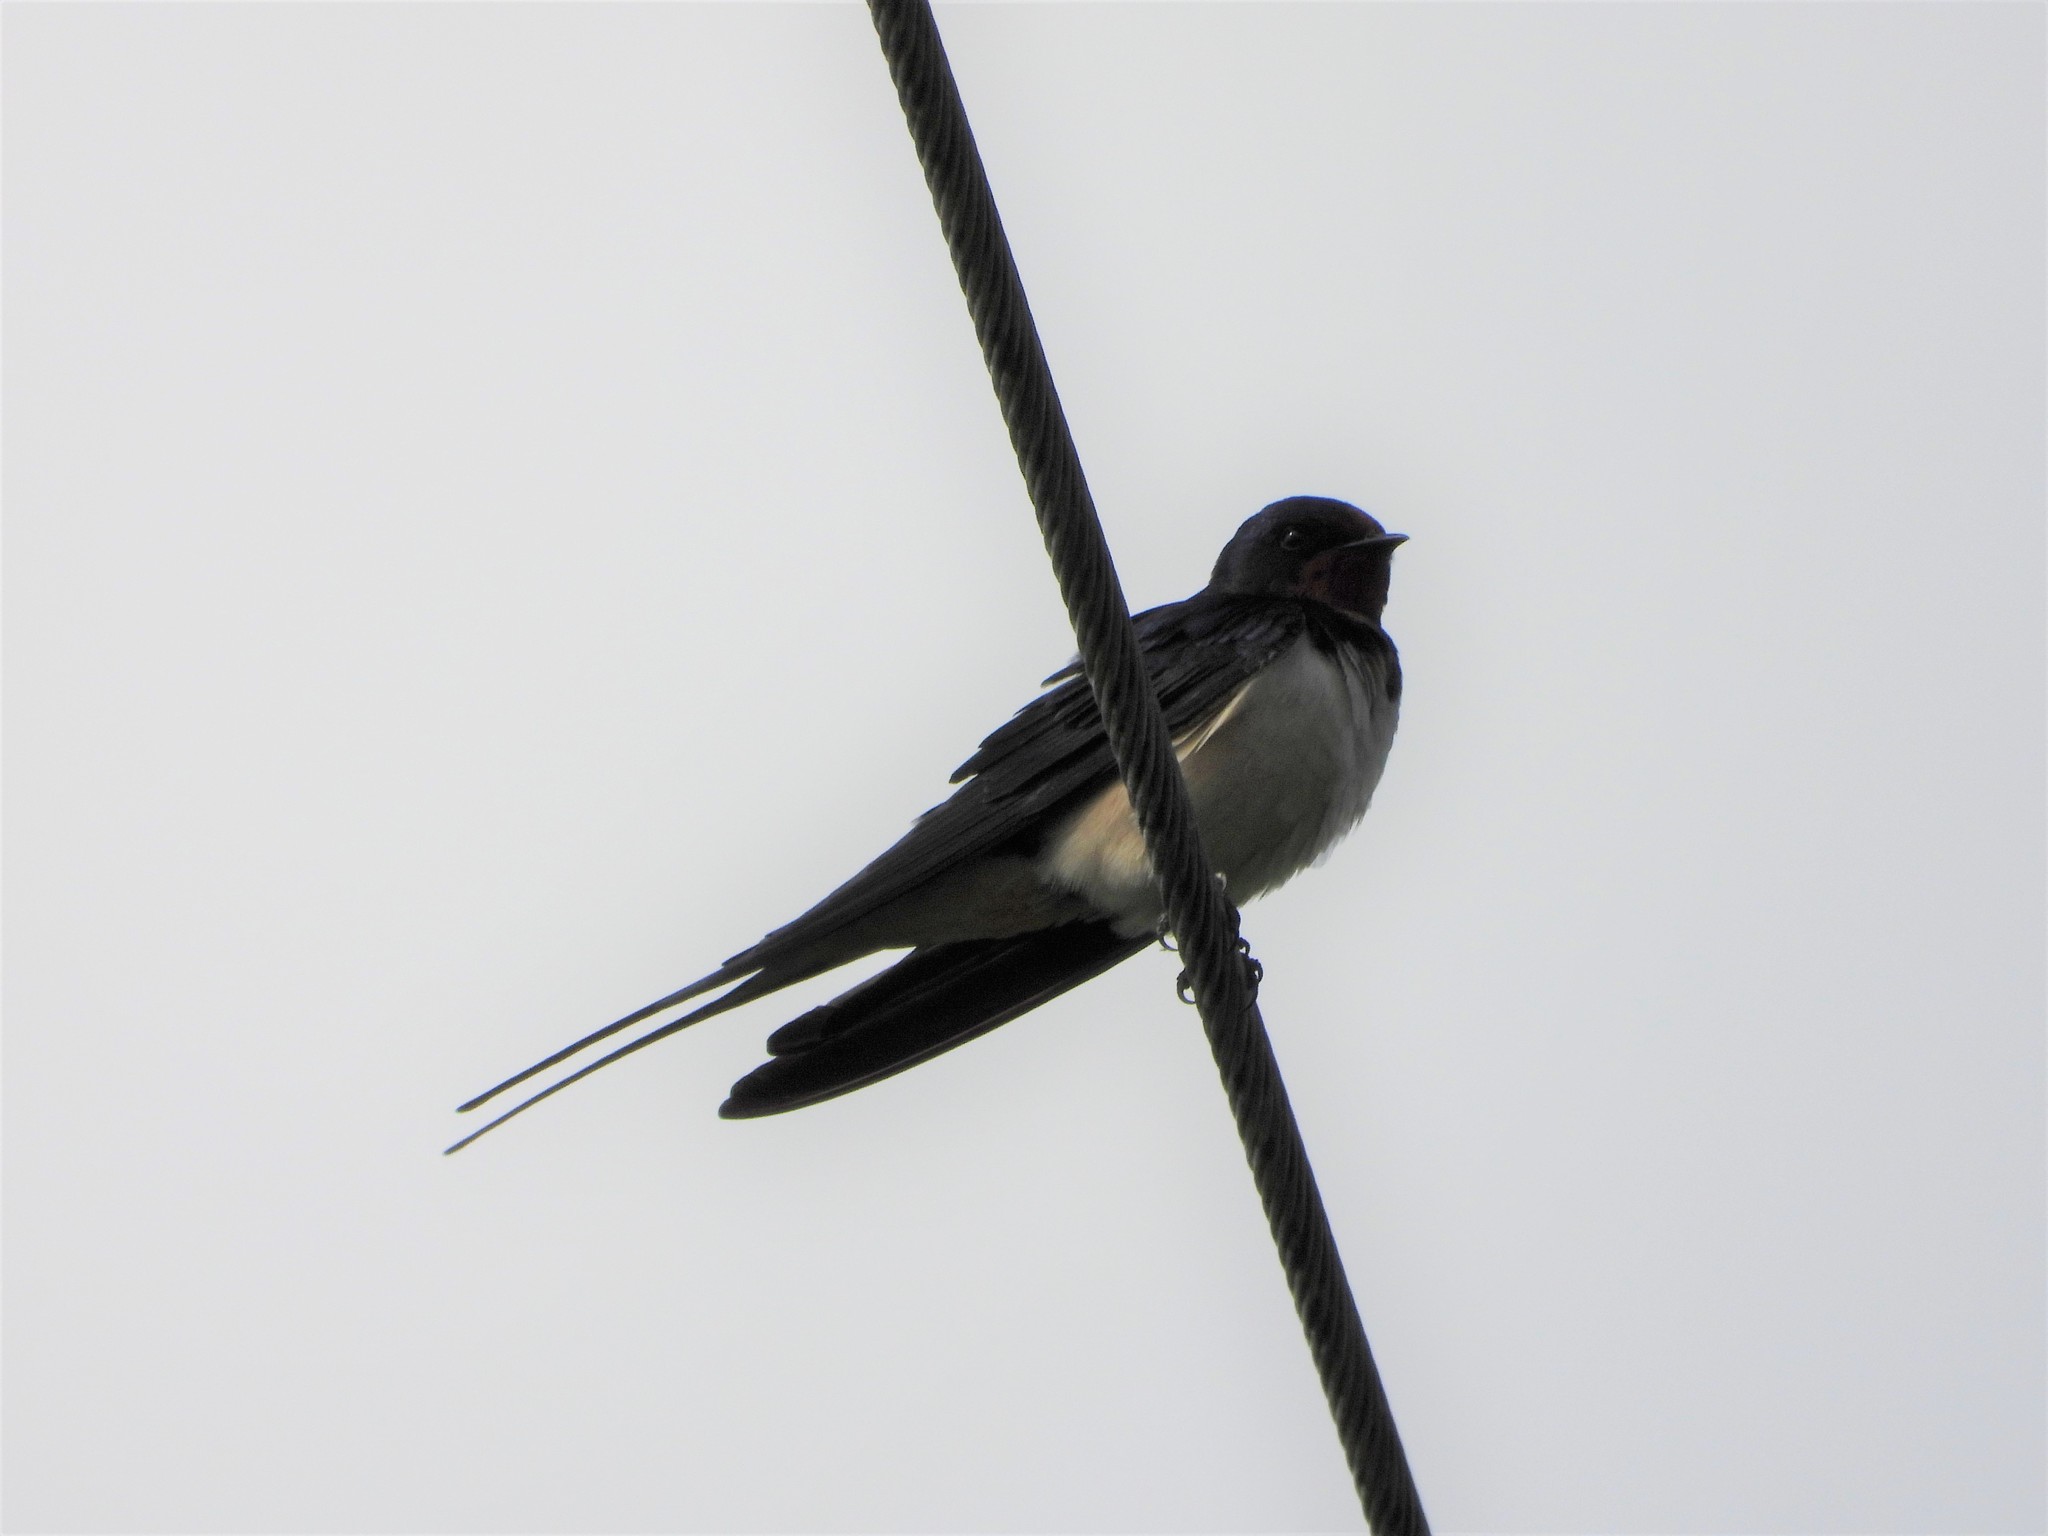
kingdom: Animalia
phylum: Chordata
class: Aves
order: Passeriformes
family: Hirundinidae
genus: Hirundo
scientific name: Hirundo rustica
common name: Barn swallow
